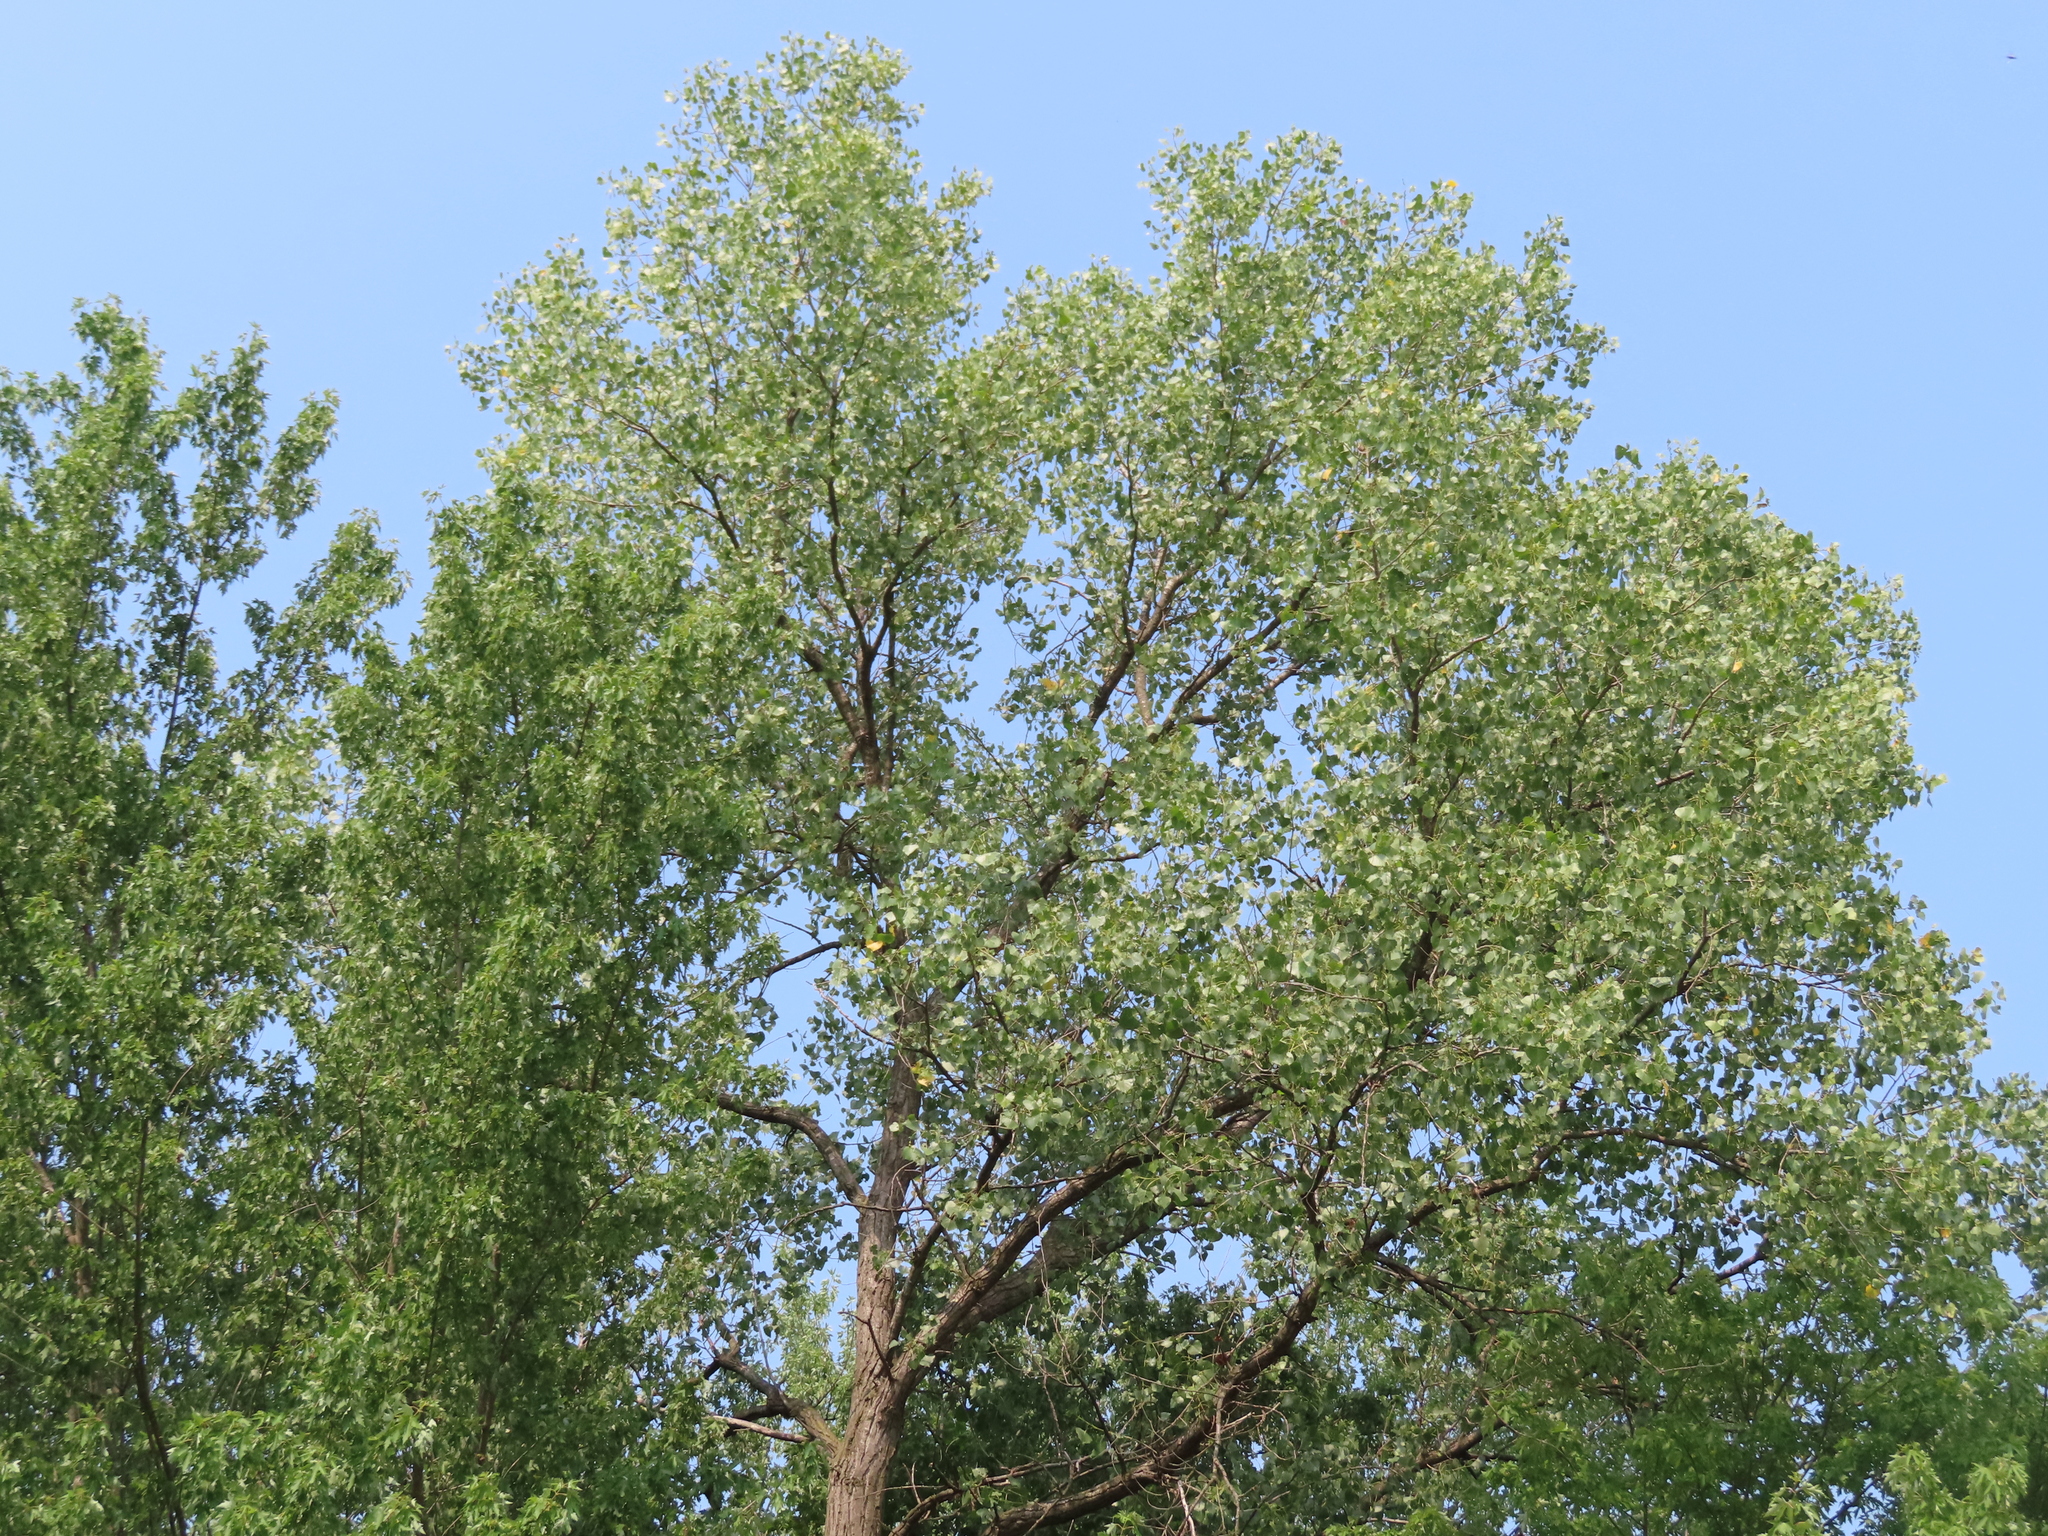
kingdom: Plantae
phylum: Tracheophyta
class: Magnoliopsida
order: Malpighiales
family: Salicaceae
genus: Populus
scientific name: Populus deltoides
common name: Eastern cottonwood
